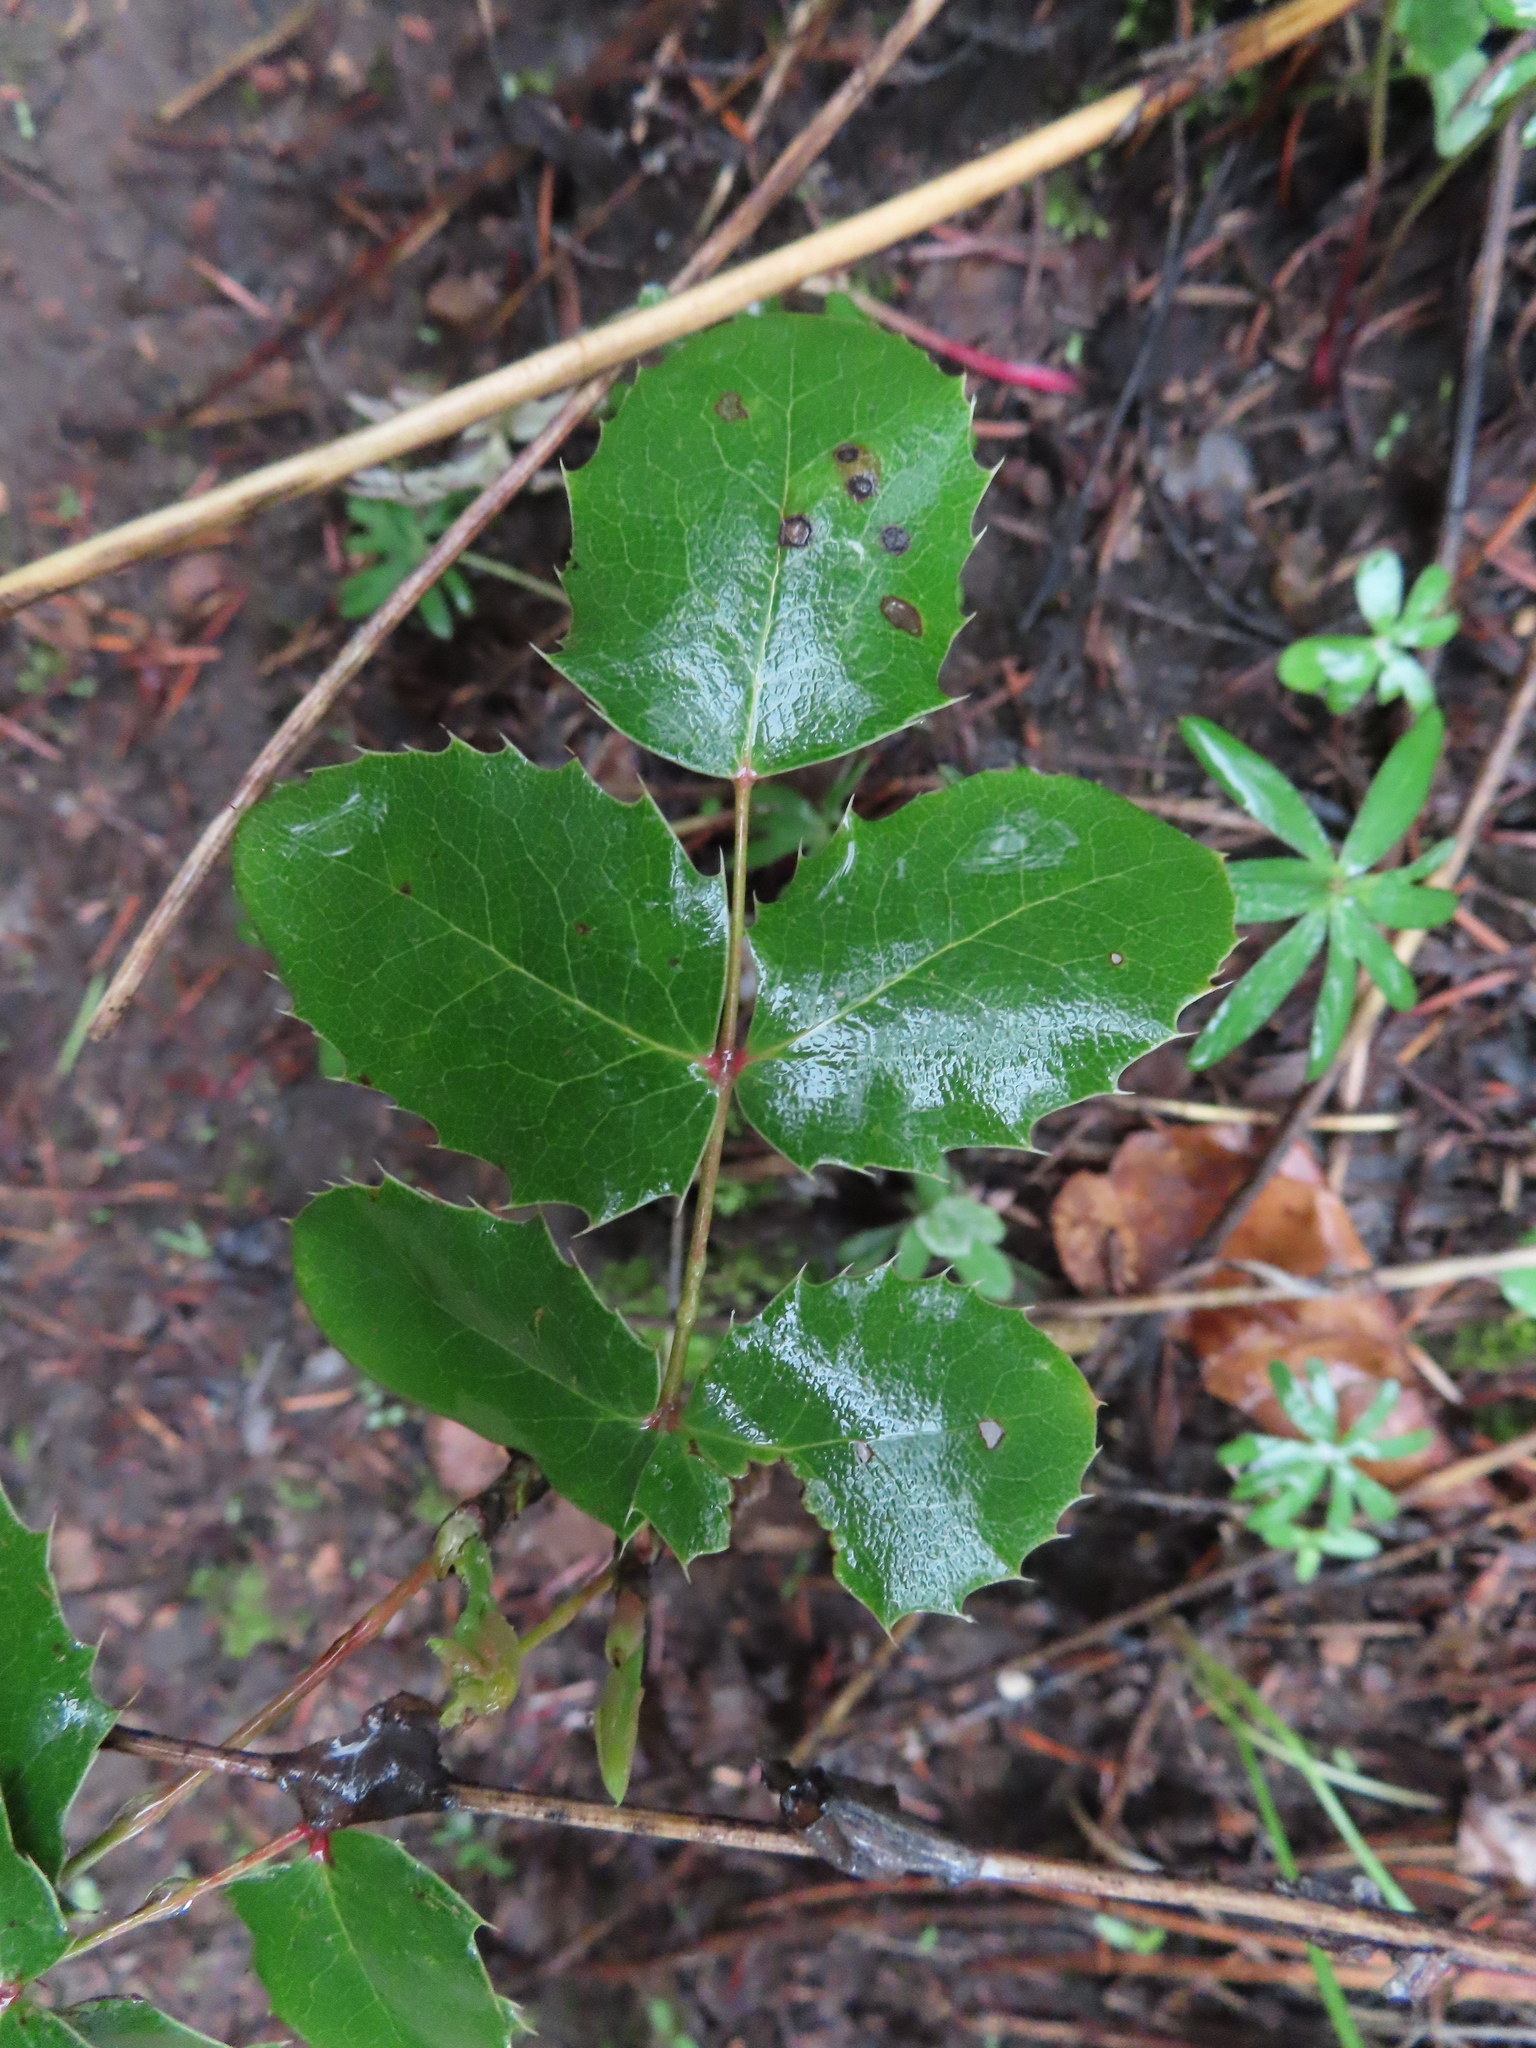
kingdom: Plantae
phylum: Tracheophyta
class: Magnoliopsida
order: Ranunculales
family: Berberidaceae
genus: Mahonia
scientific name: Mahonia repens
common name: Creeping oregon-grape
